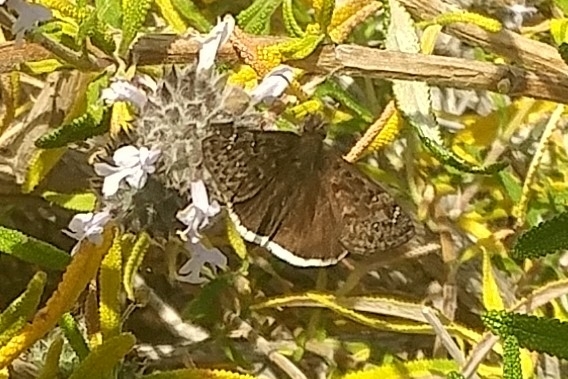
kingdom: Animalia
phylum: Arthropoda
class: Insecta
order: Lepidoptera
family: Hesperiidae
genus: Erynnis
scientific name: Erynnis tristis
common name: Mournful duskywing
